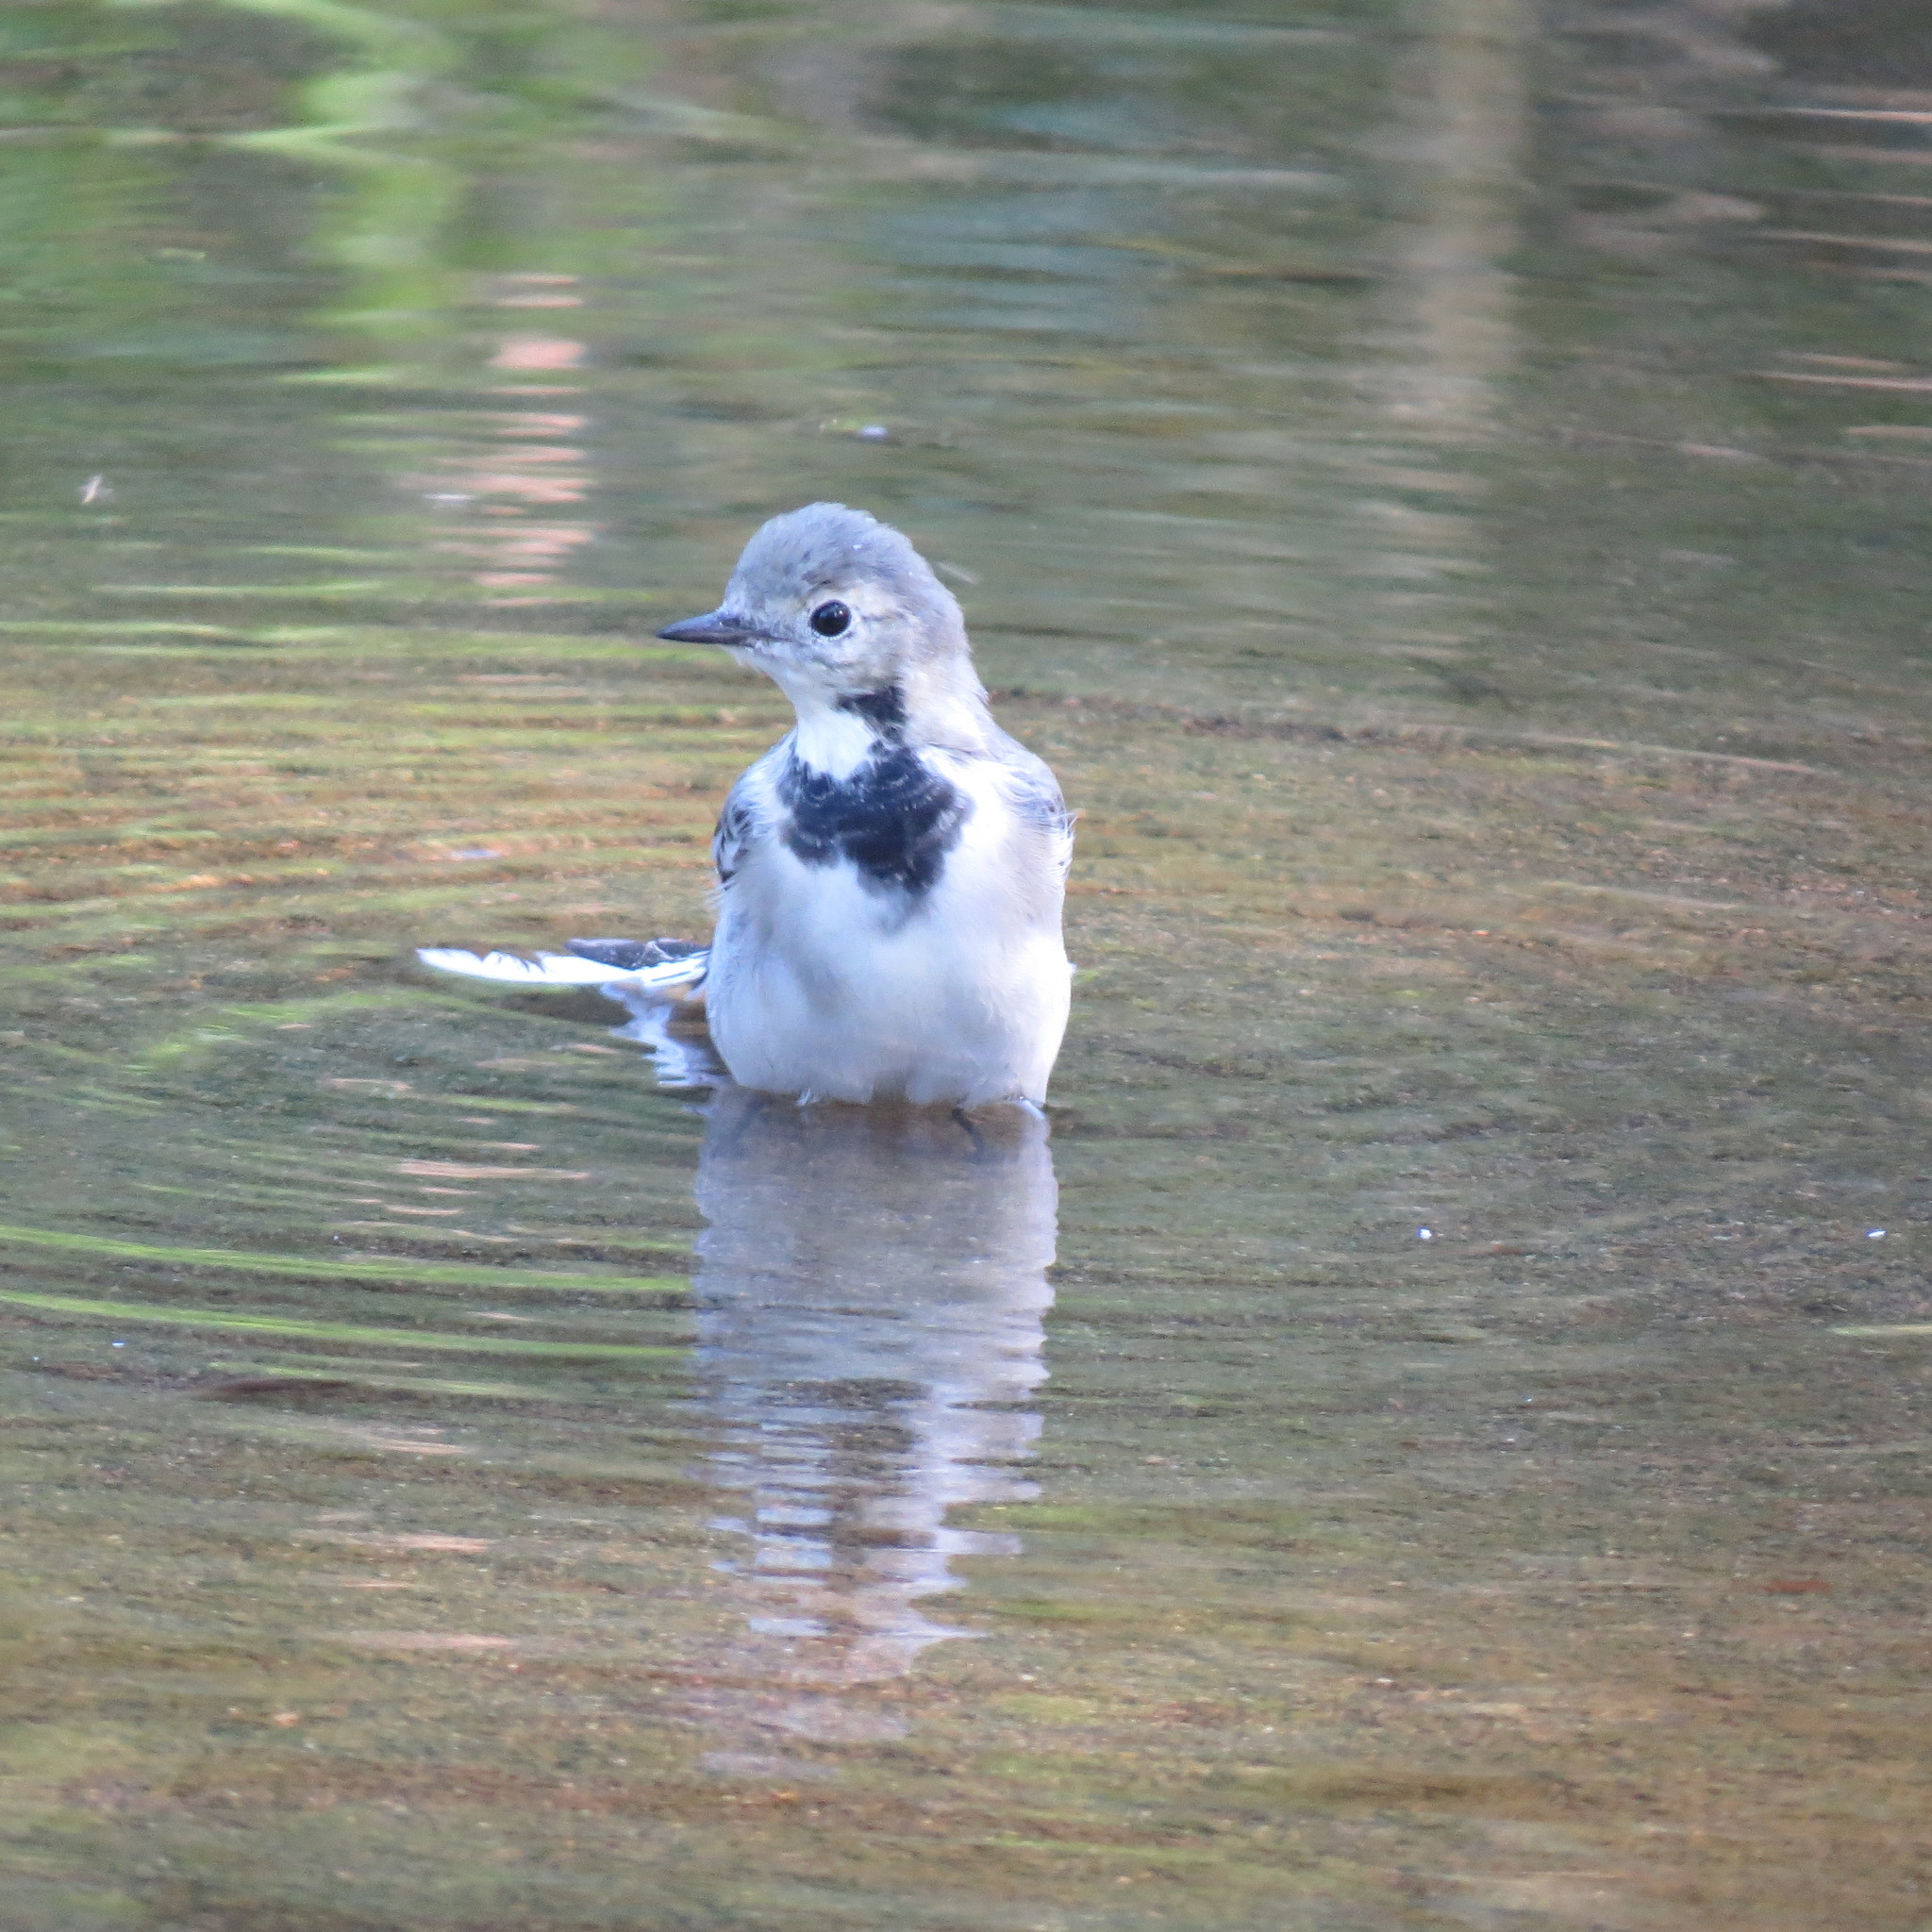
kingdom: Animalia
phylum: Chordata
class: Aves
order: Passeriformes
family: Motacillidae
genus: Motacilla
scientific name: Motacilla alba
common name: White wagtail
